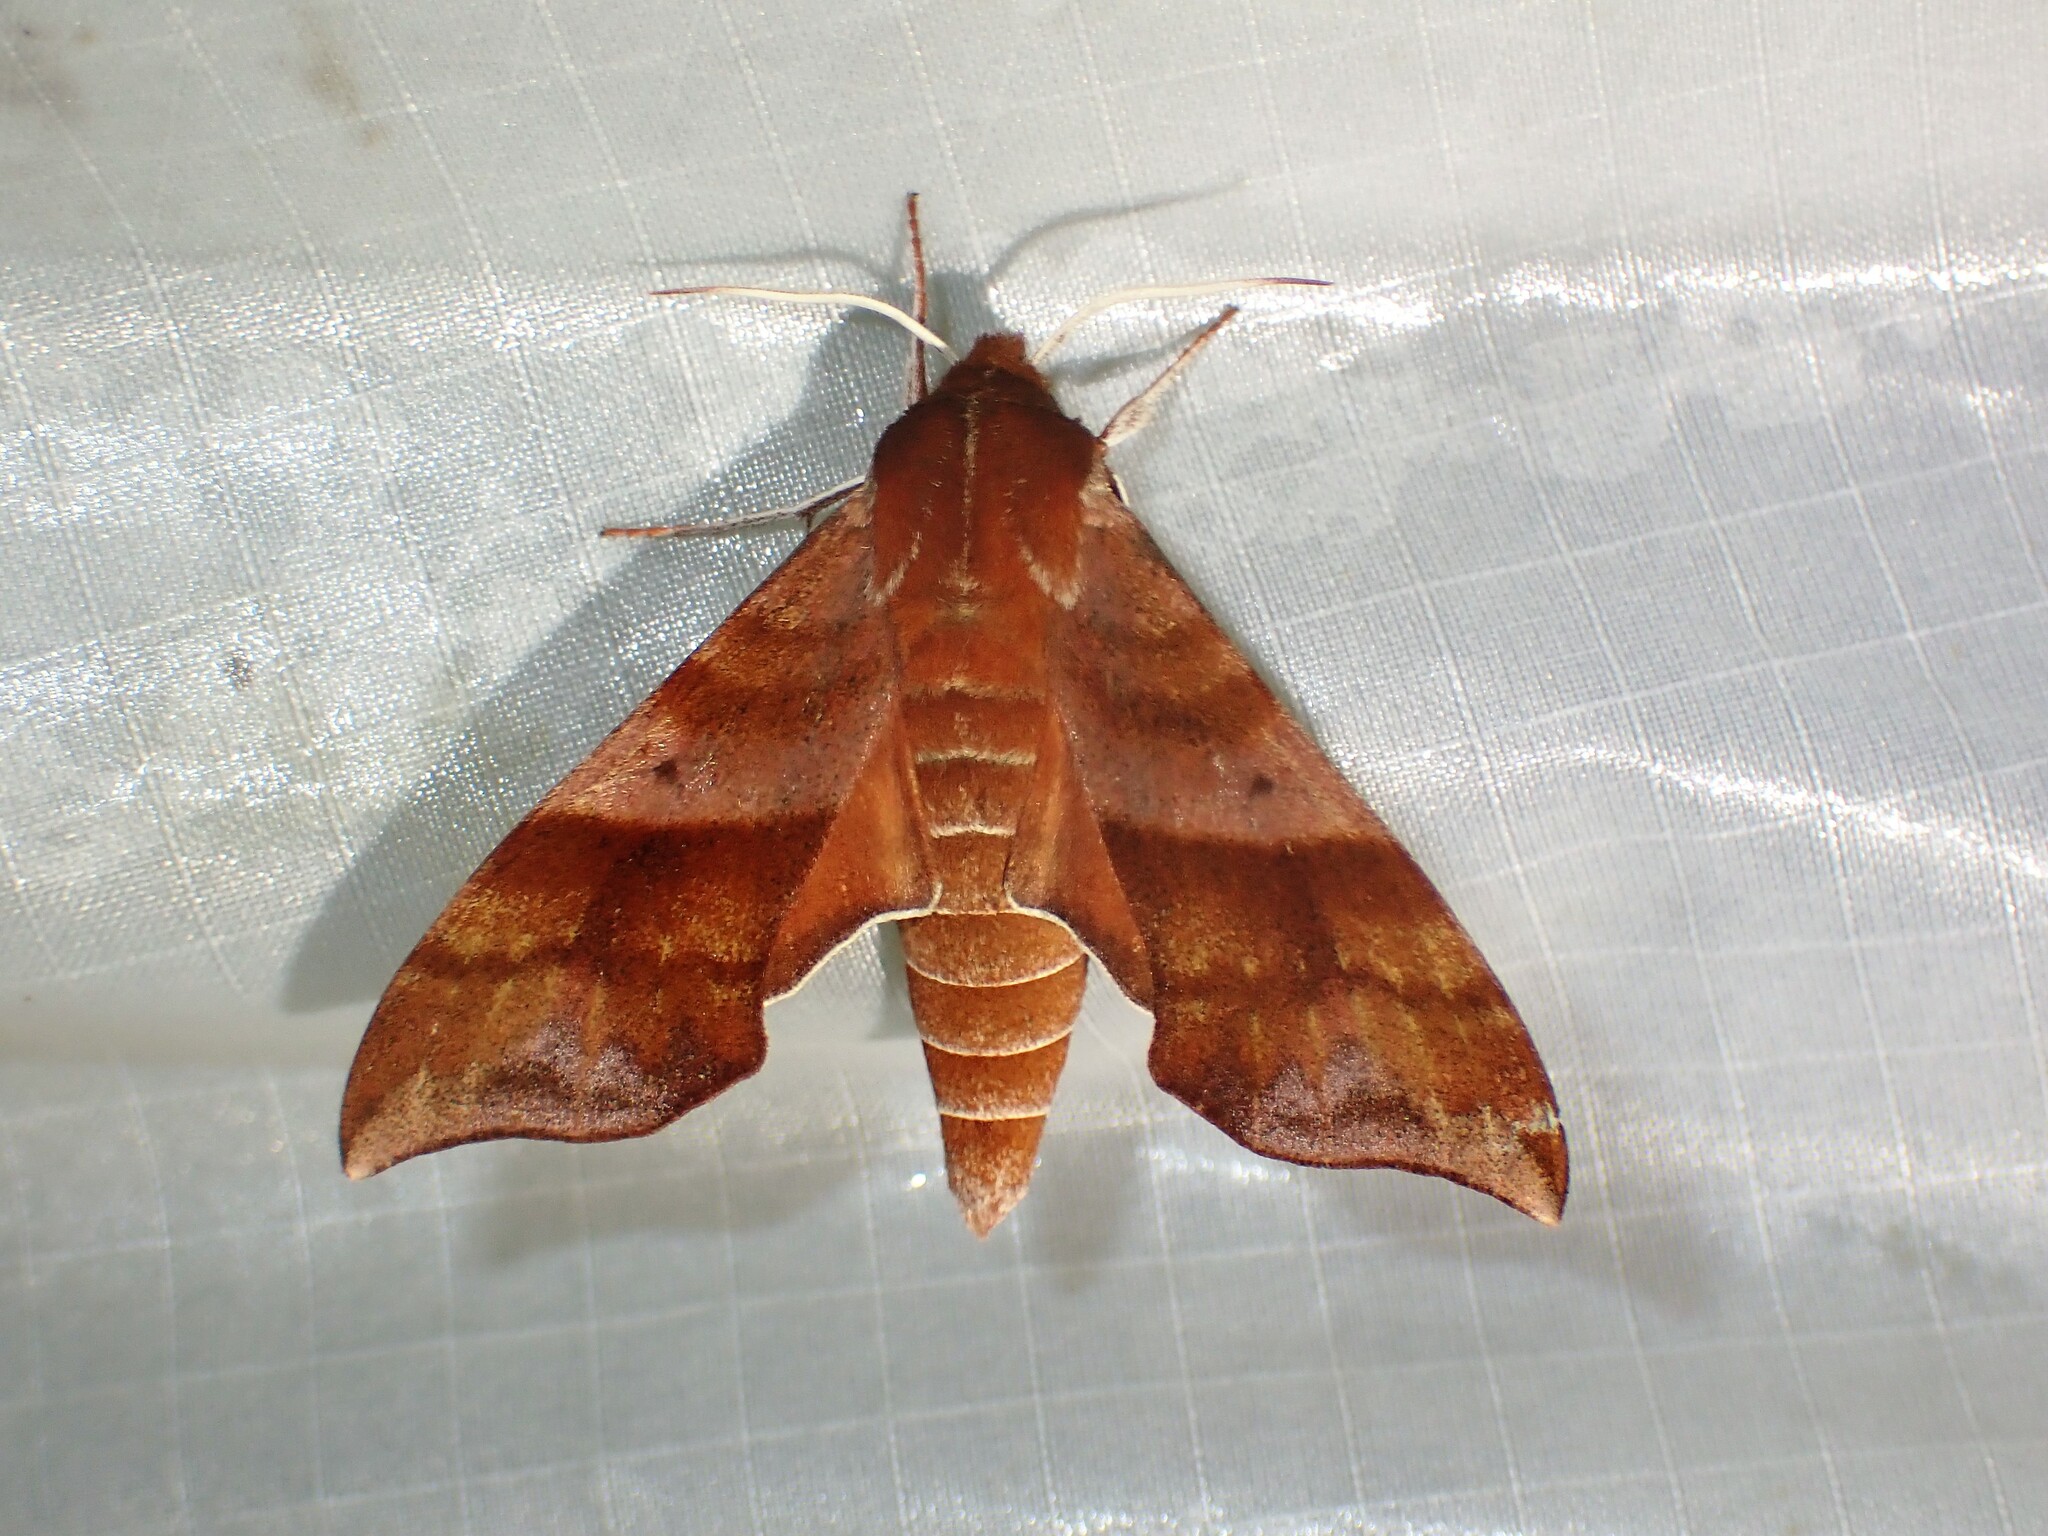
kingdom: Animalia
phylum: Arthropoda
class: Insecta
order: Lepidoptera
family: Sphingidae
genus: Darapsa
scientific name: Darapsa choerilus
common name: Azalea sphinx
